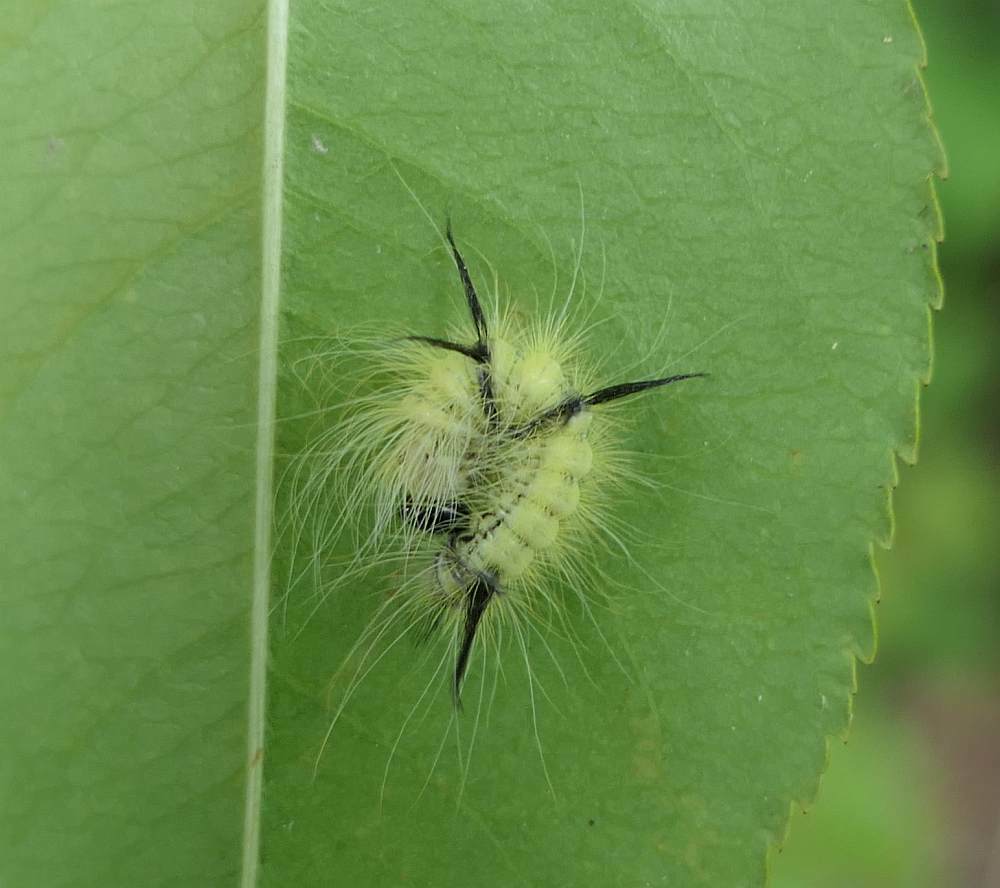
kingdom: Animalia
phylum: Arthropoda
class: Insecta
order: Lepidoptera
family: Noctuidae
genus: Acronicta
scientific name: Acronicta americana
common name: American dagger
